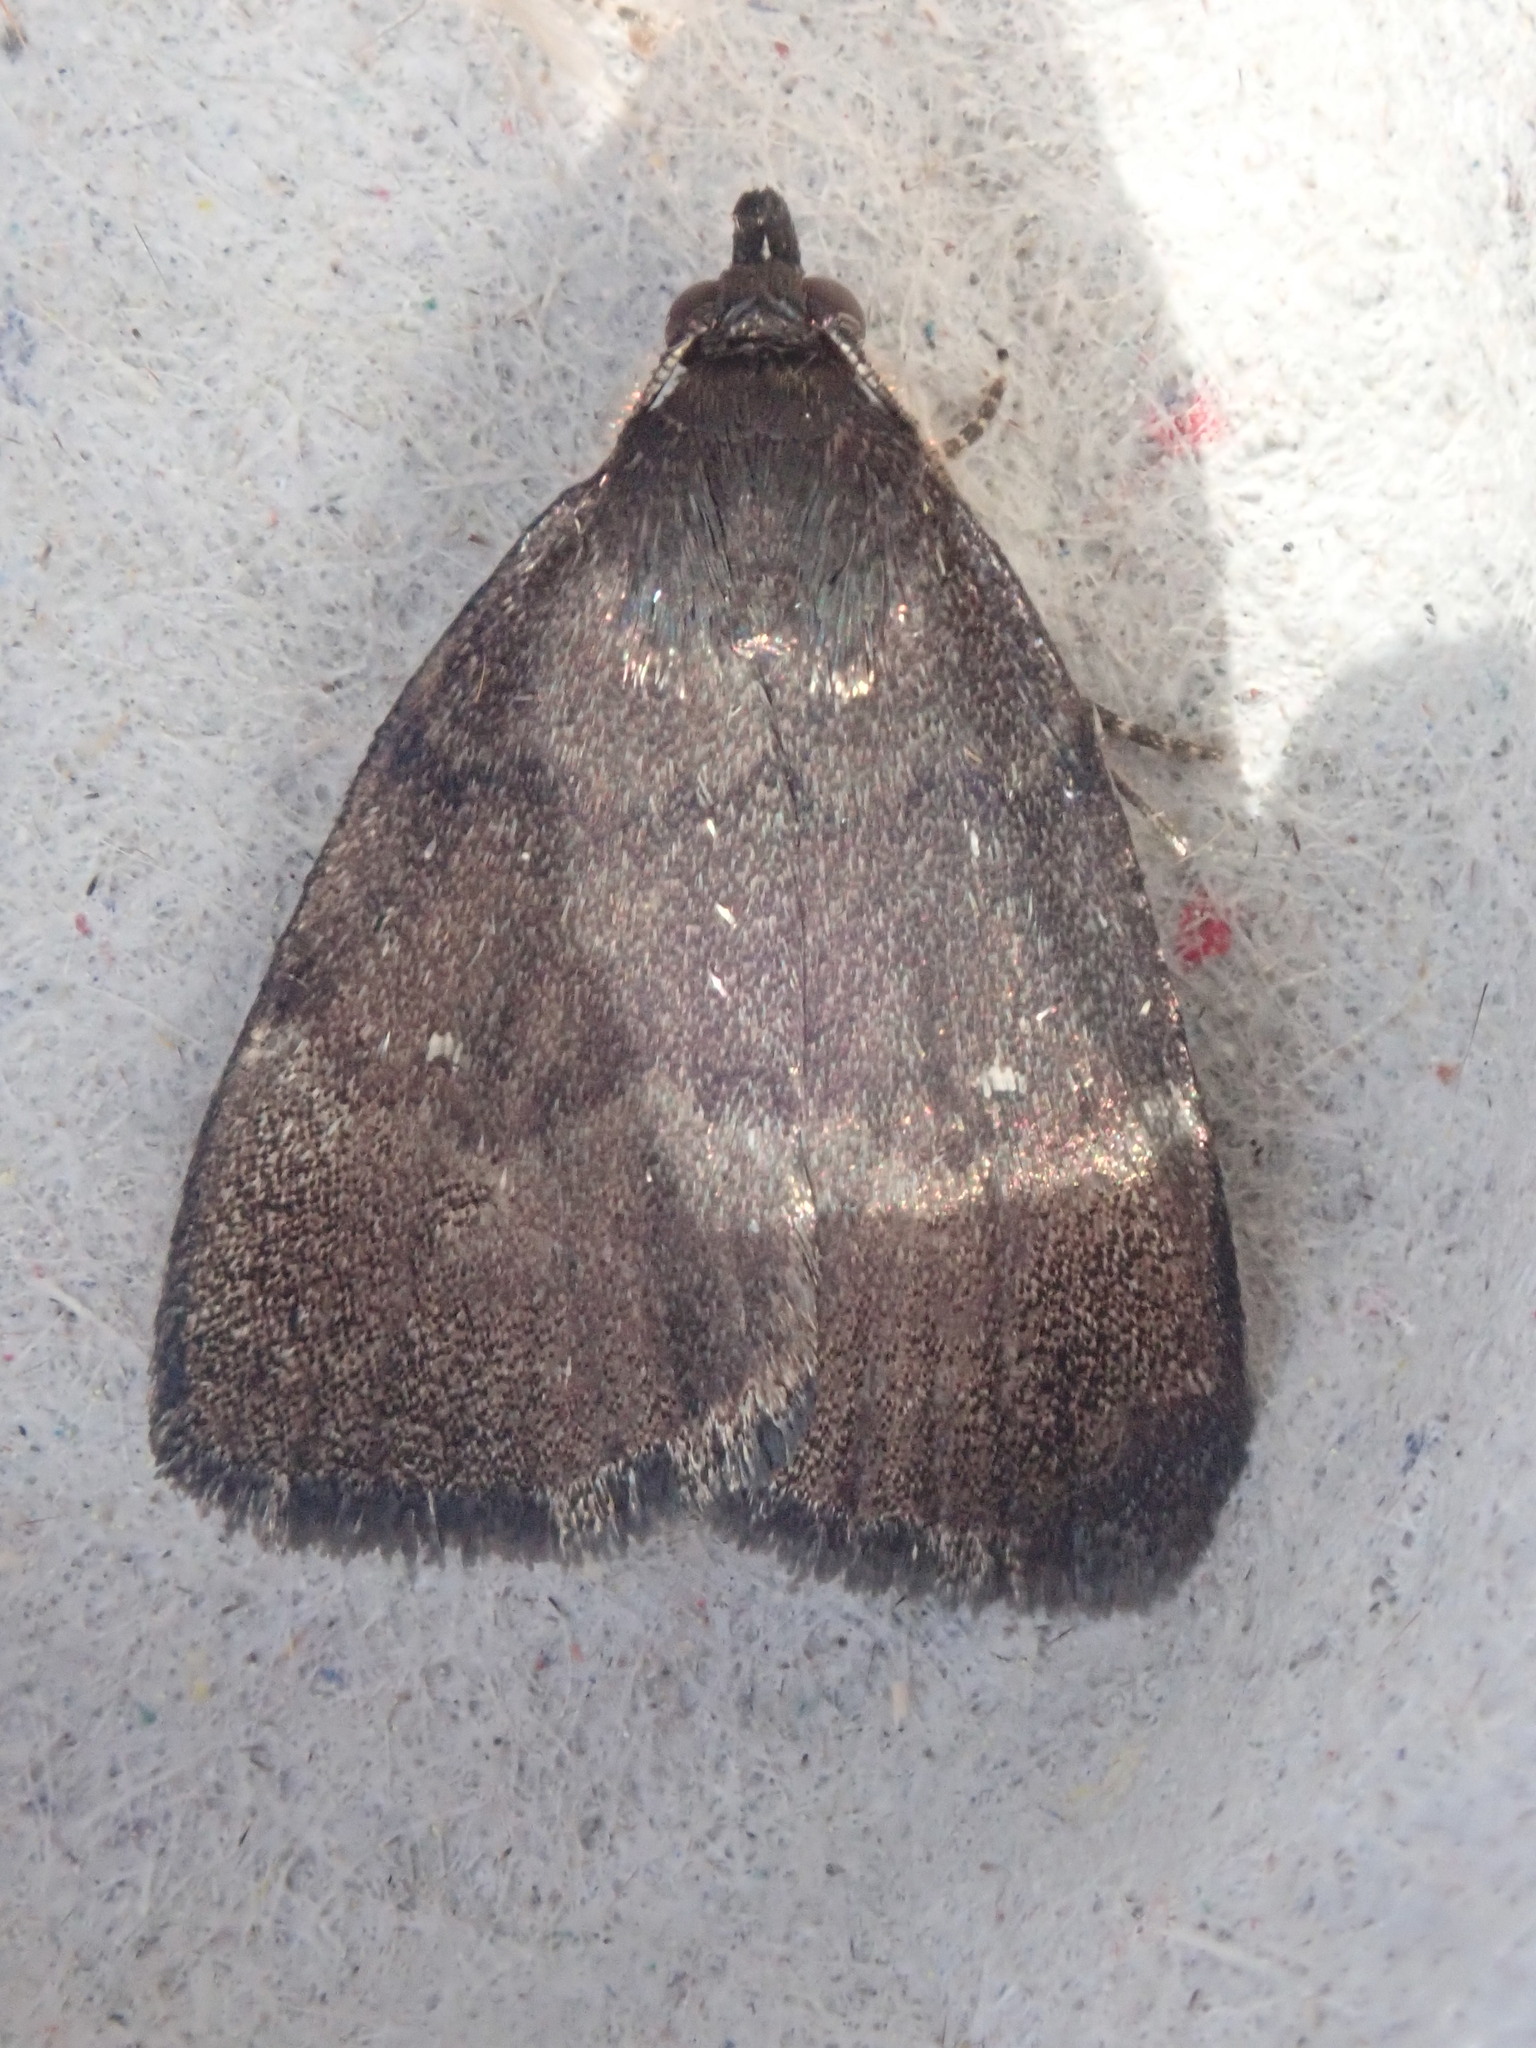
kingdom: Animalia
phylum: Arthropoda
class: Insecta
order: Lepidoptera
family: Erebidae
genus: Idia
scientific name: Idia rotundalis
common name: Rotund idia moth
